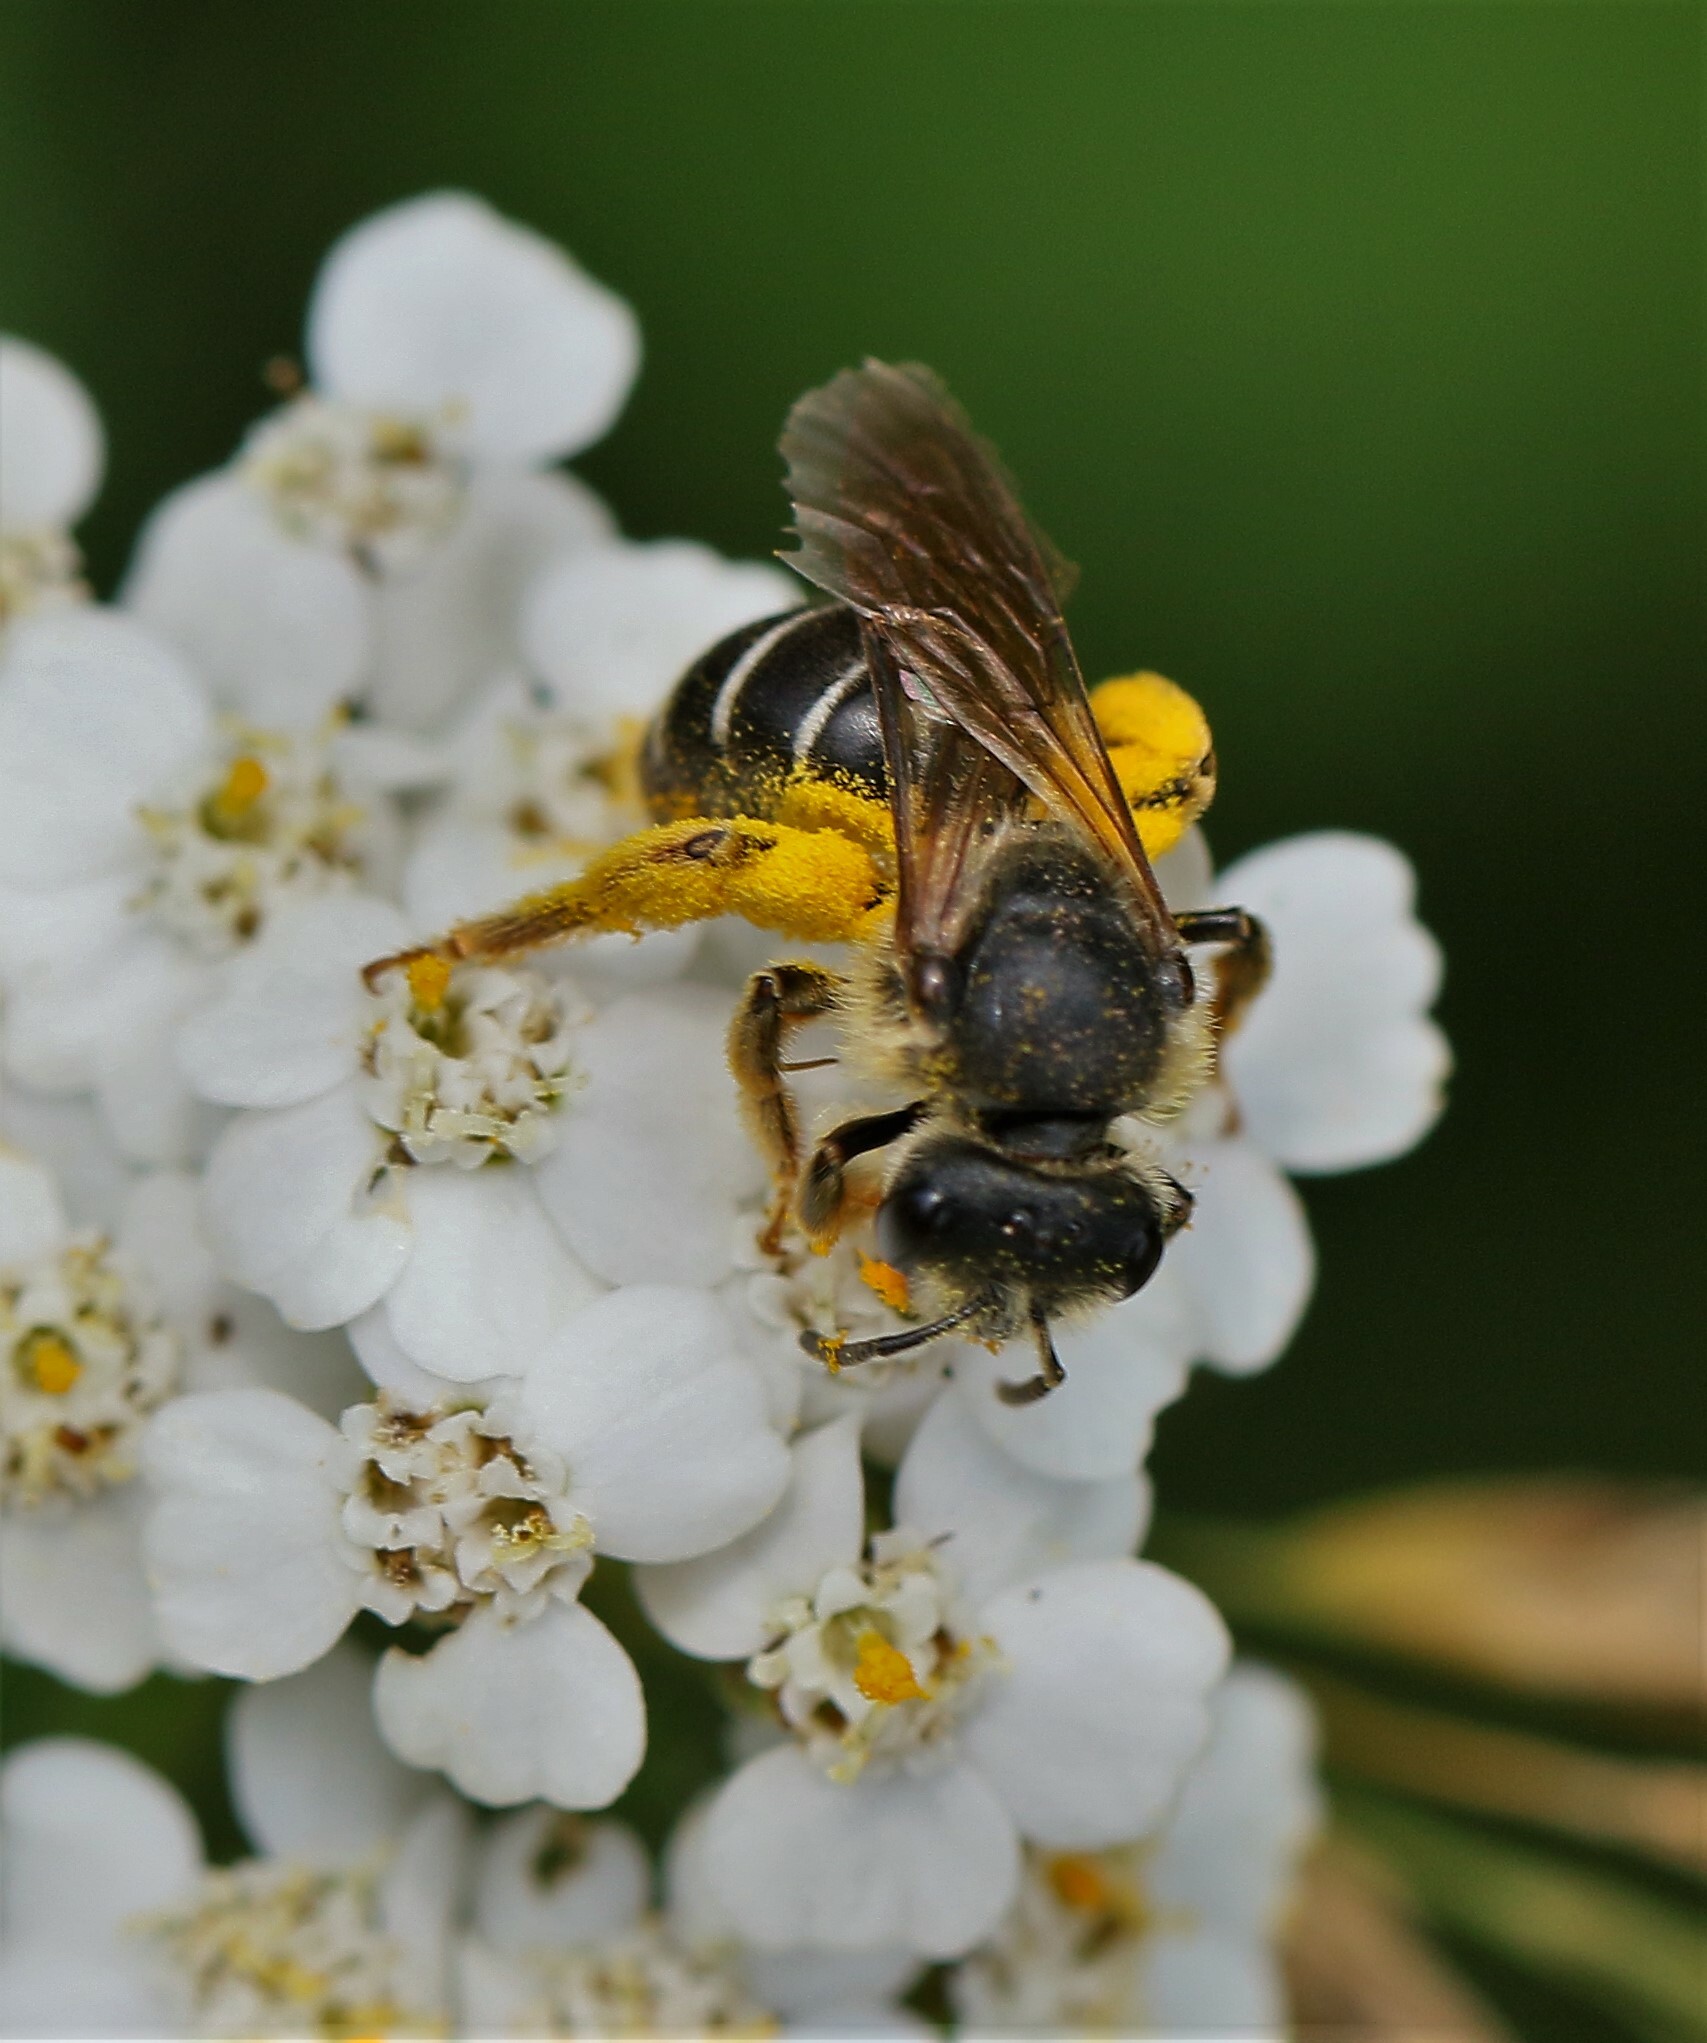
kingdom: Animalia
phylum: Arthropoda
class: Insecta
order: Hymenoptera
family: Halictidae
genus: Halictus
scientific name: Halictus rubicundus
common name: Orange-legged furrow bee
